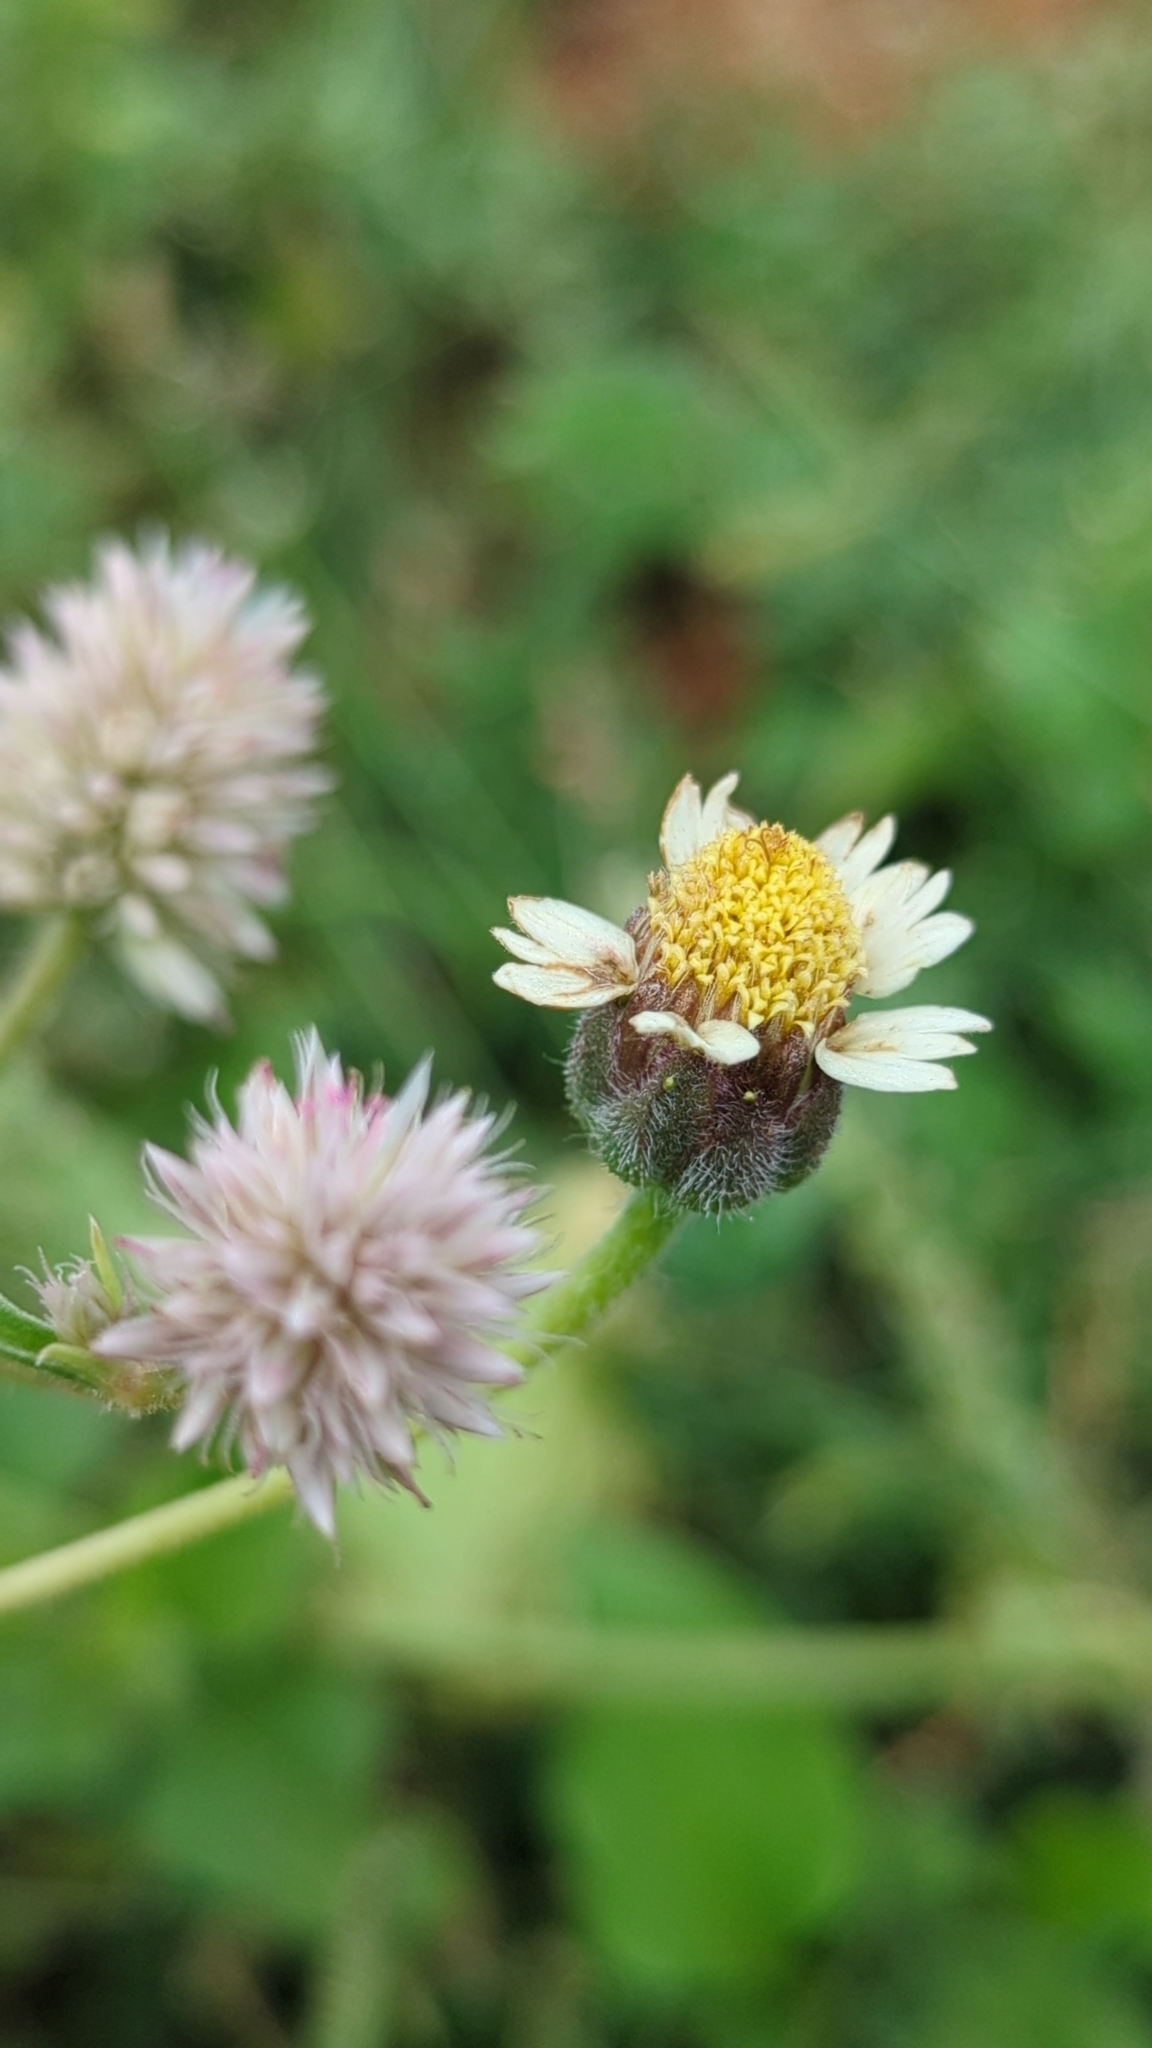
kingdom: Plantae
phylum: Tracheophyta
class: Magnoliopsida
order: Asterales
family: Asteraceae
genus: Tridax
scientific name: Tridax procumbens
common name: Coatbuttons
